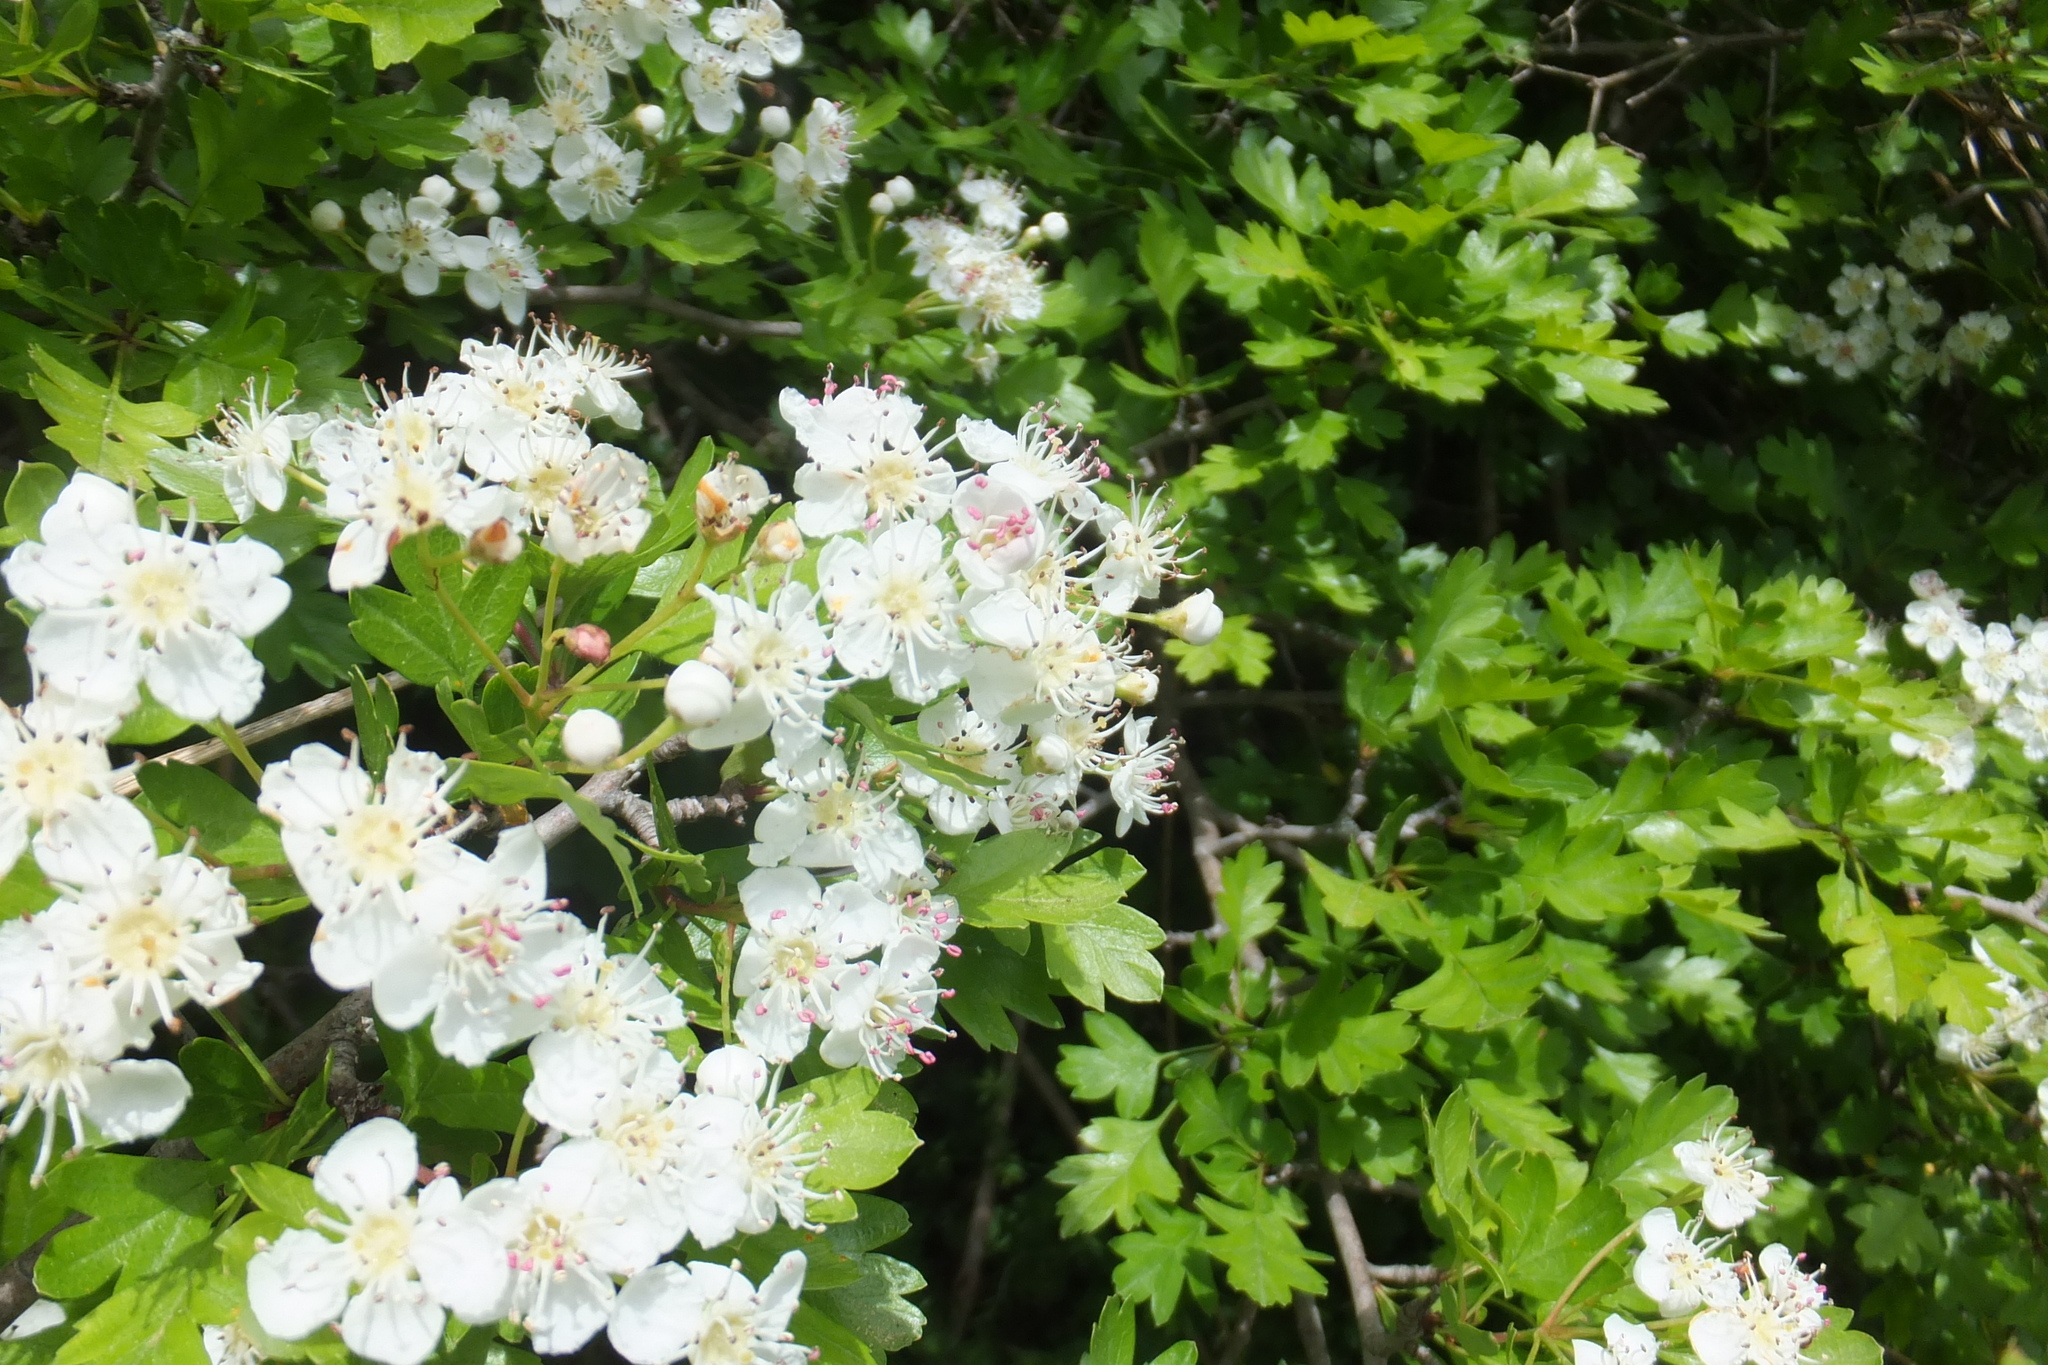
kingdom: Plantae
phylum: Tracheophyta
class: Magnoliopsida
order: Rosales
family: Rosaceae
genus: Crataegus
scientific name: Crataegus monogyna
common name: Hawthorn
